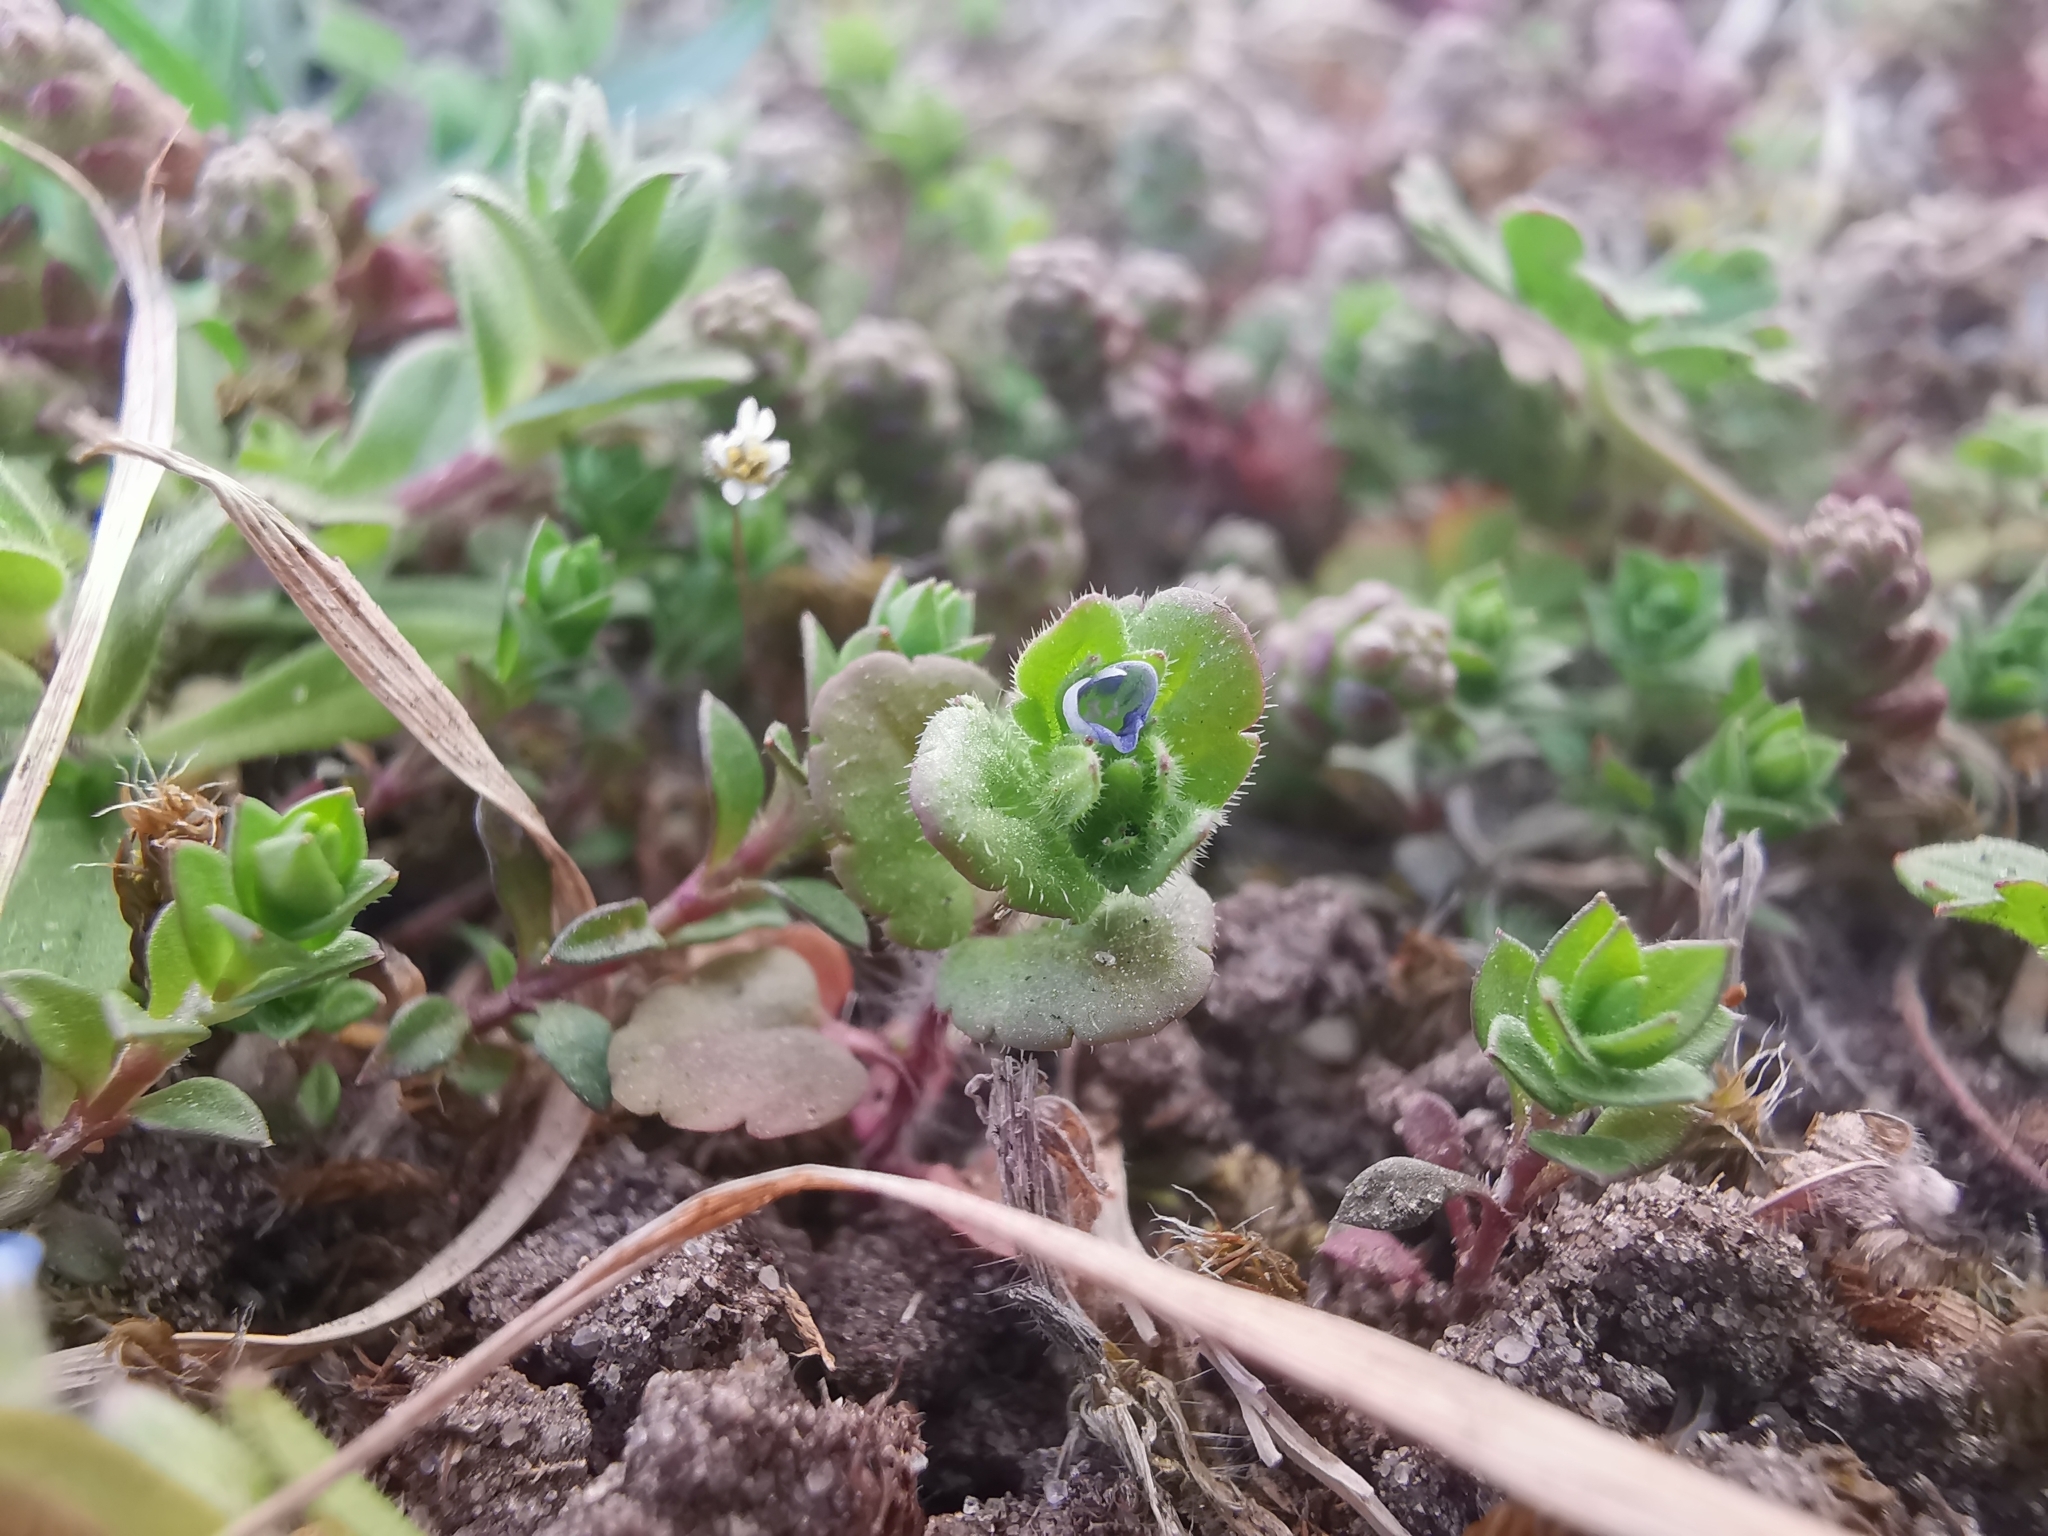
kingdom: Plantae
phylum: Tracheophyta
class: Magnoliopsida
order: Lamiales
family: Plantaginaceae
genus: Veronica
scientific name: Veronica arvensis
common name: Corn speedwell
